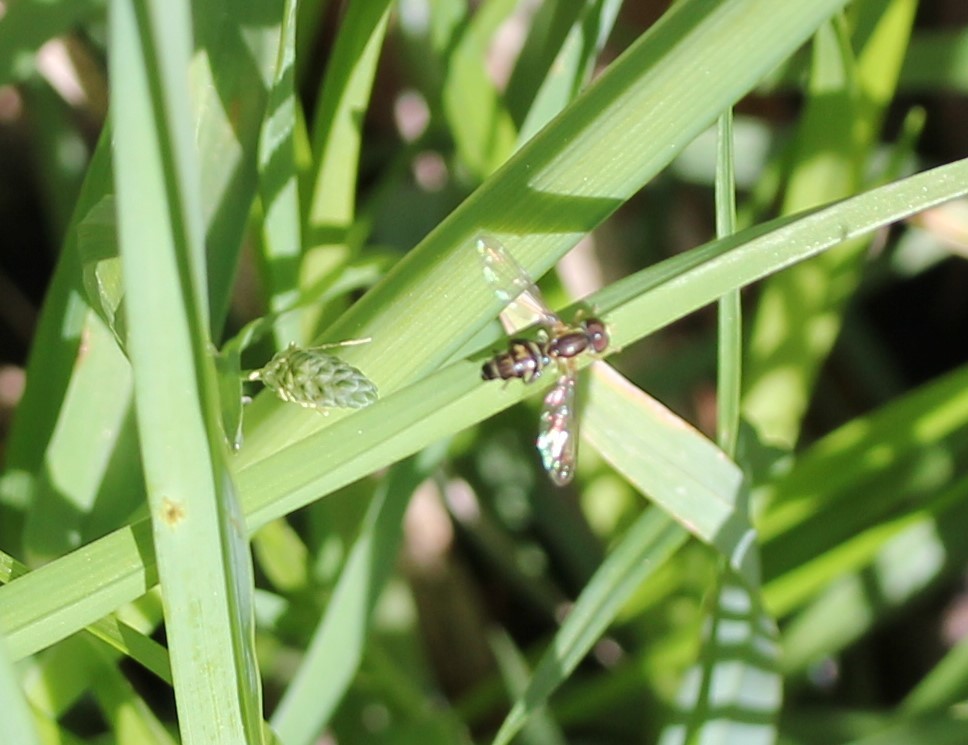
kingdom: Animalia
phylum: Arthropoda
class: Insecta
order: Diptera
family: Syrphidae
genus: Toxomerus
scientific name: Toxomerus geminatus
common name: Eastern calligrapher
